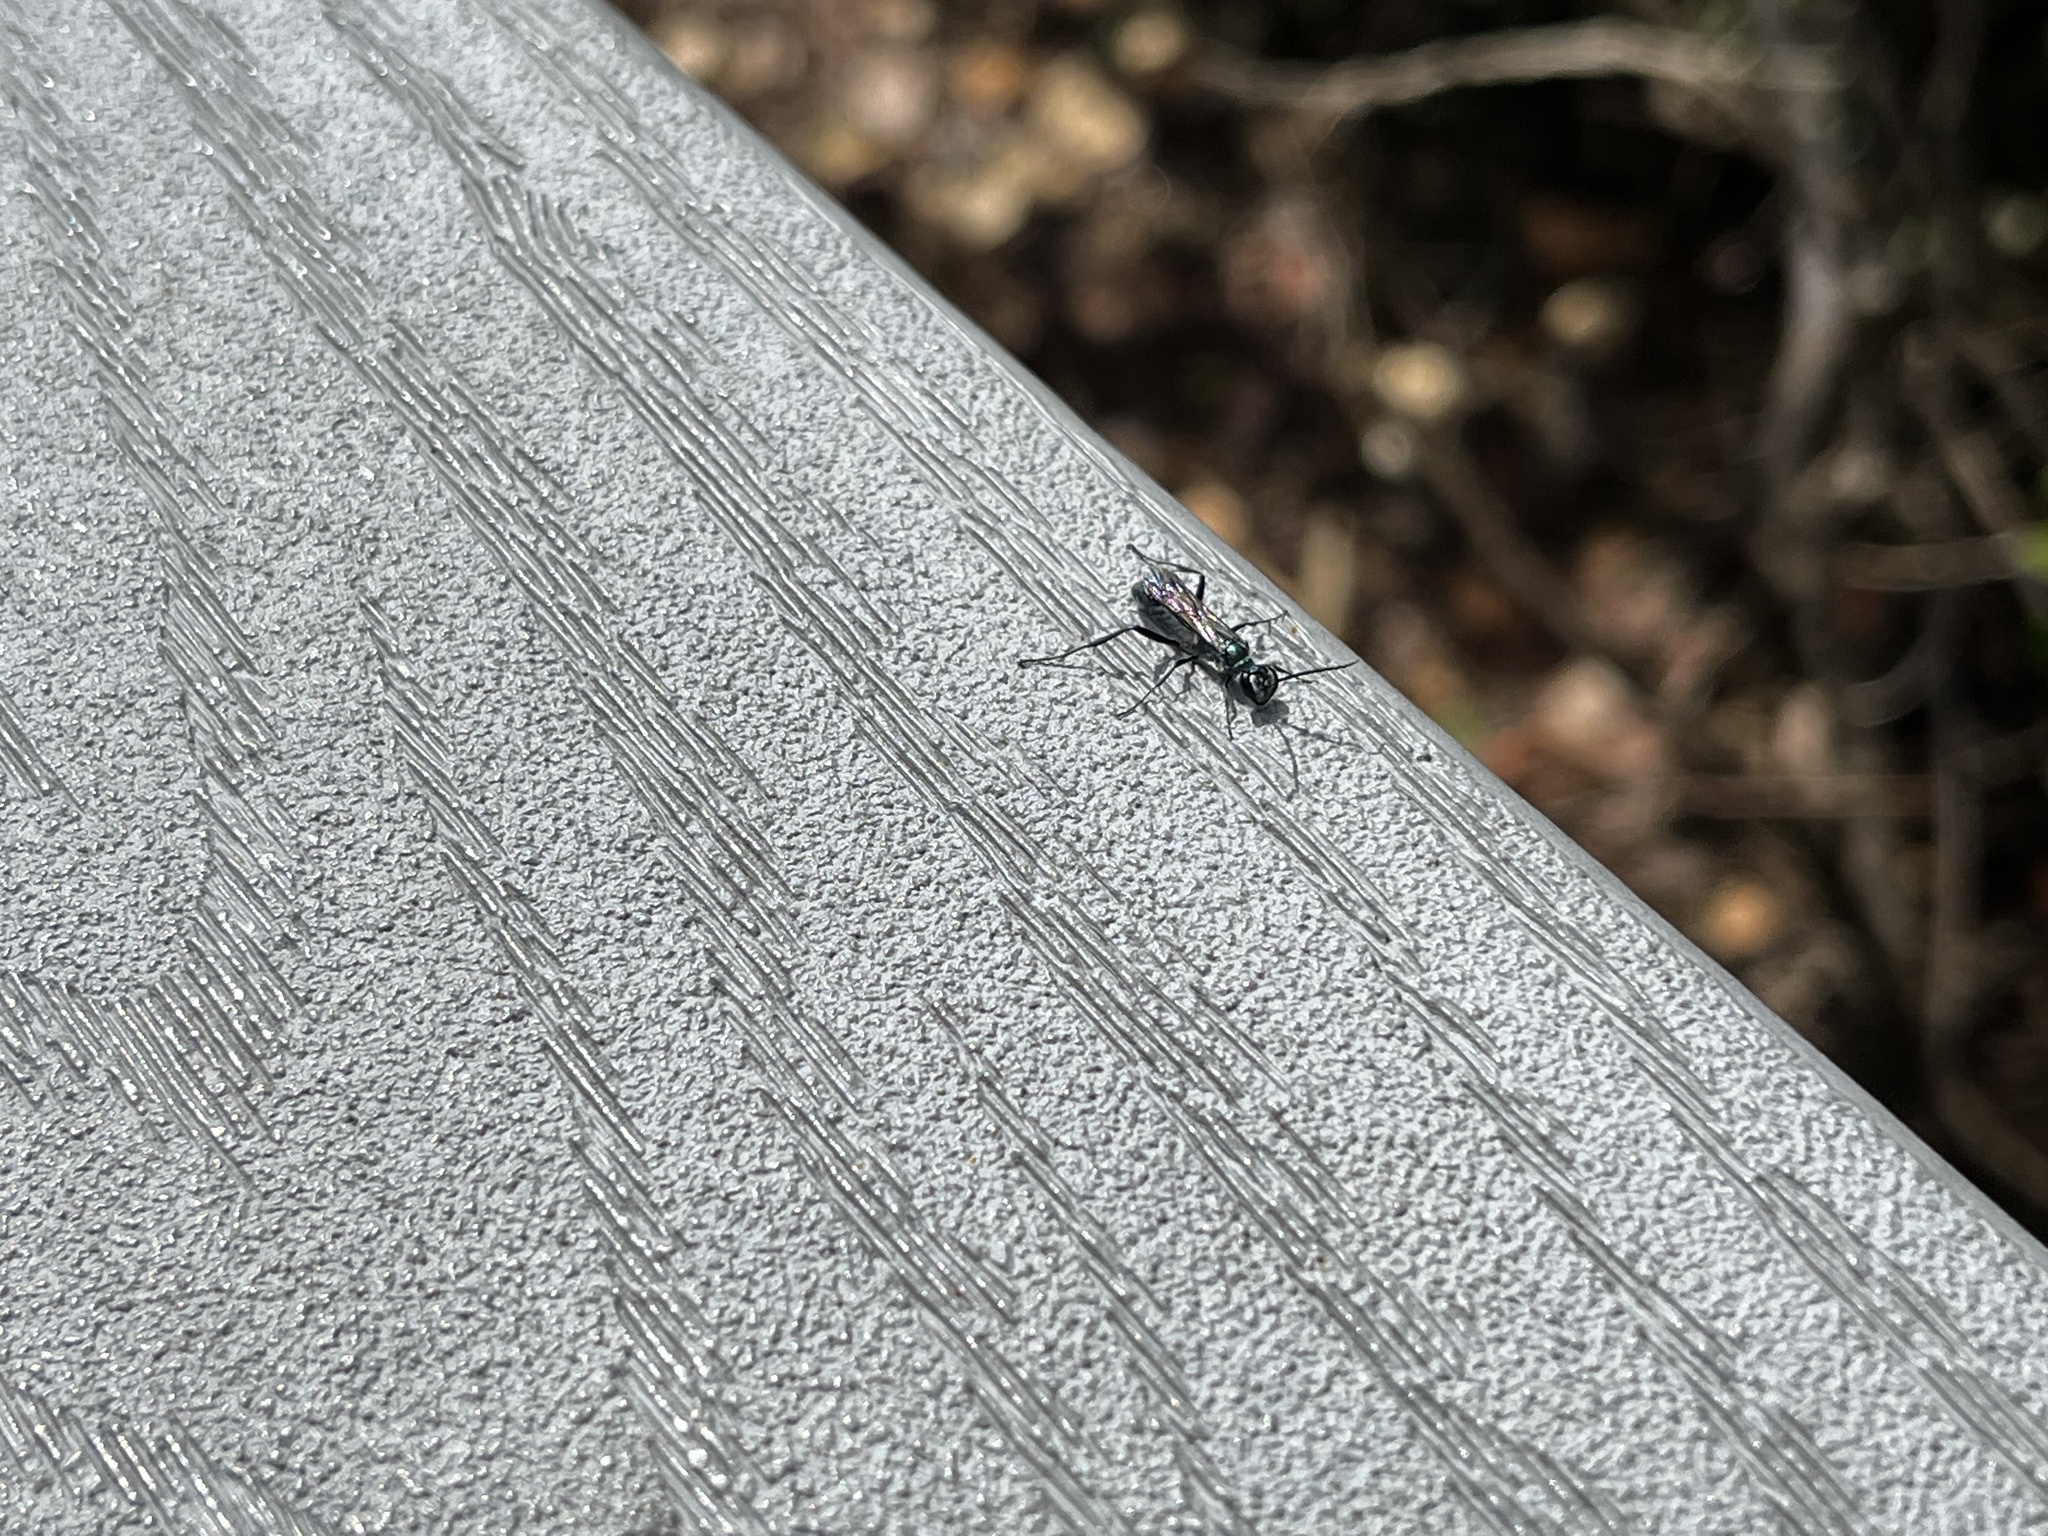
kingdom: Animalia
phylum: Arthropoda
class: Insecta
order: Hymenoptera
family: Sphecidae
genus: Chalybion
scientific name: Chalybion zimmermanni
